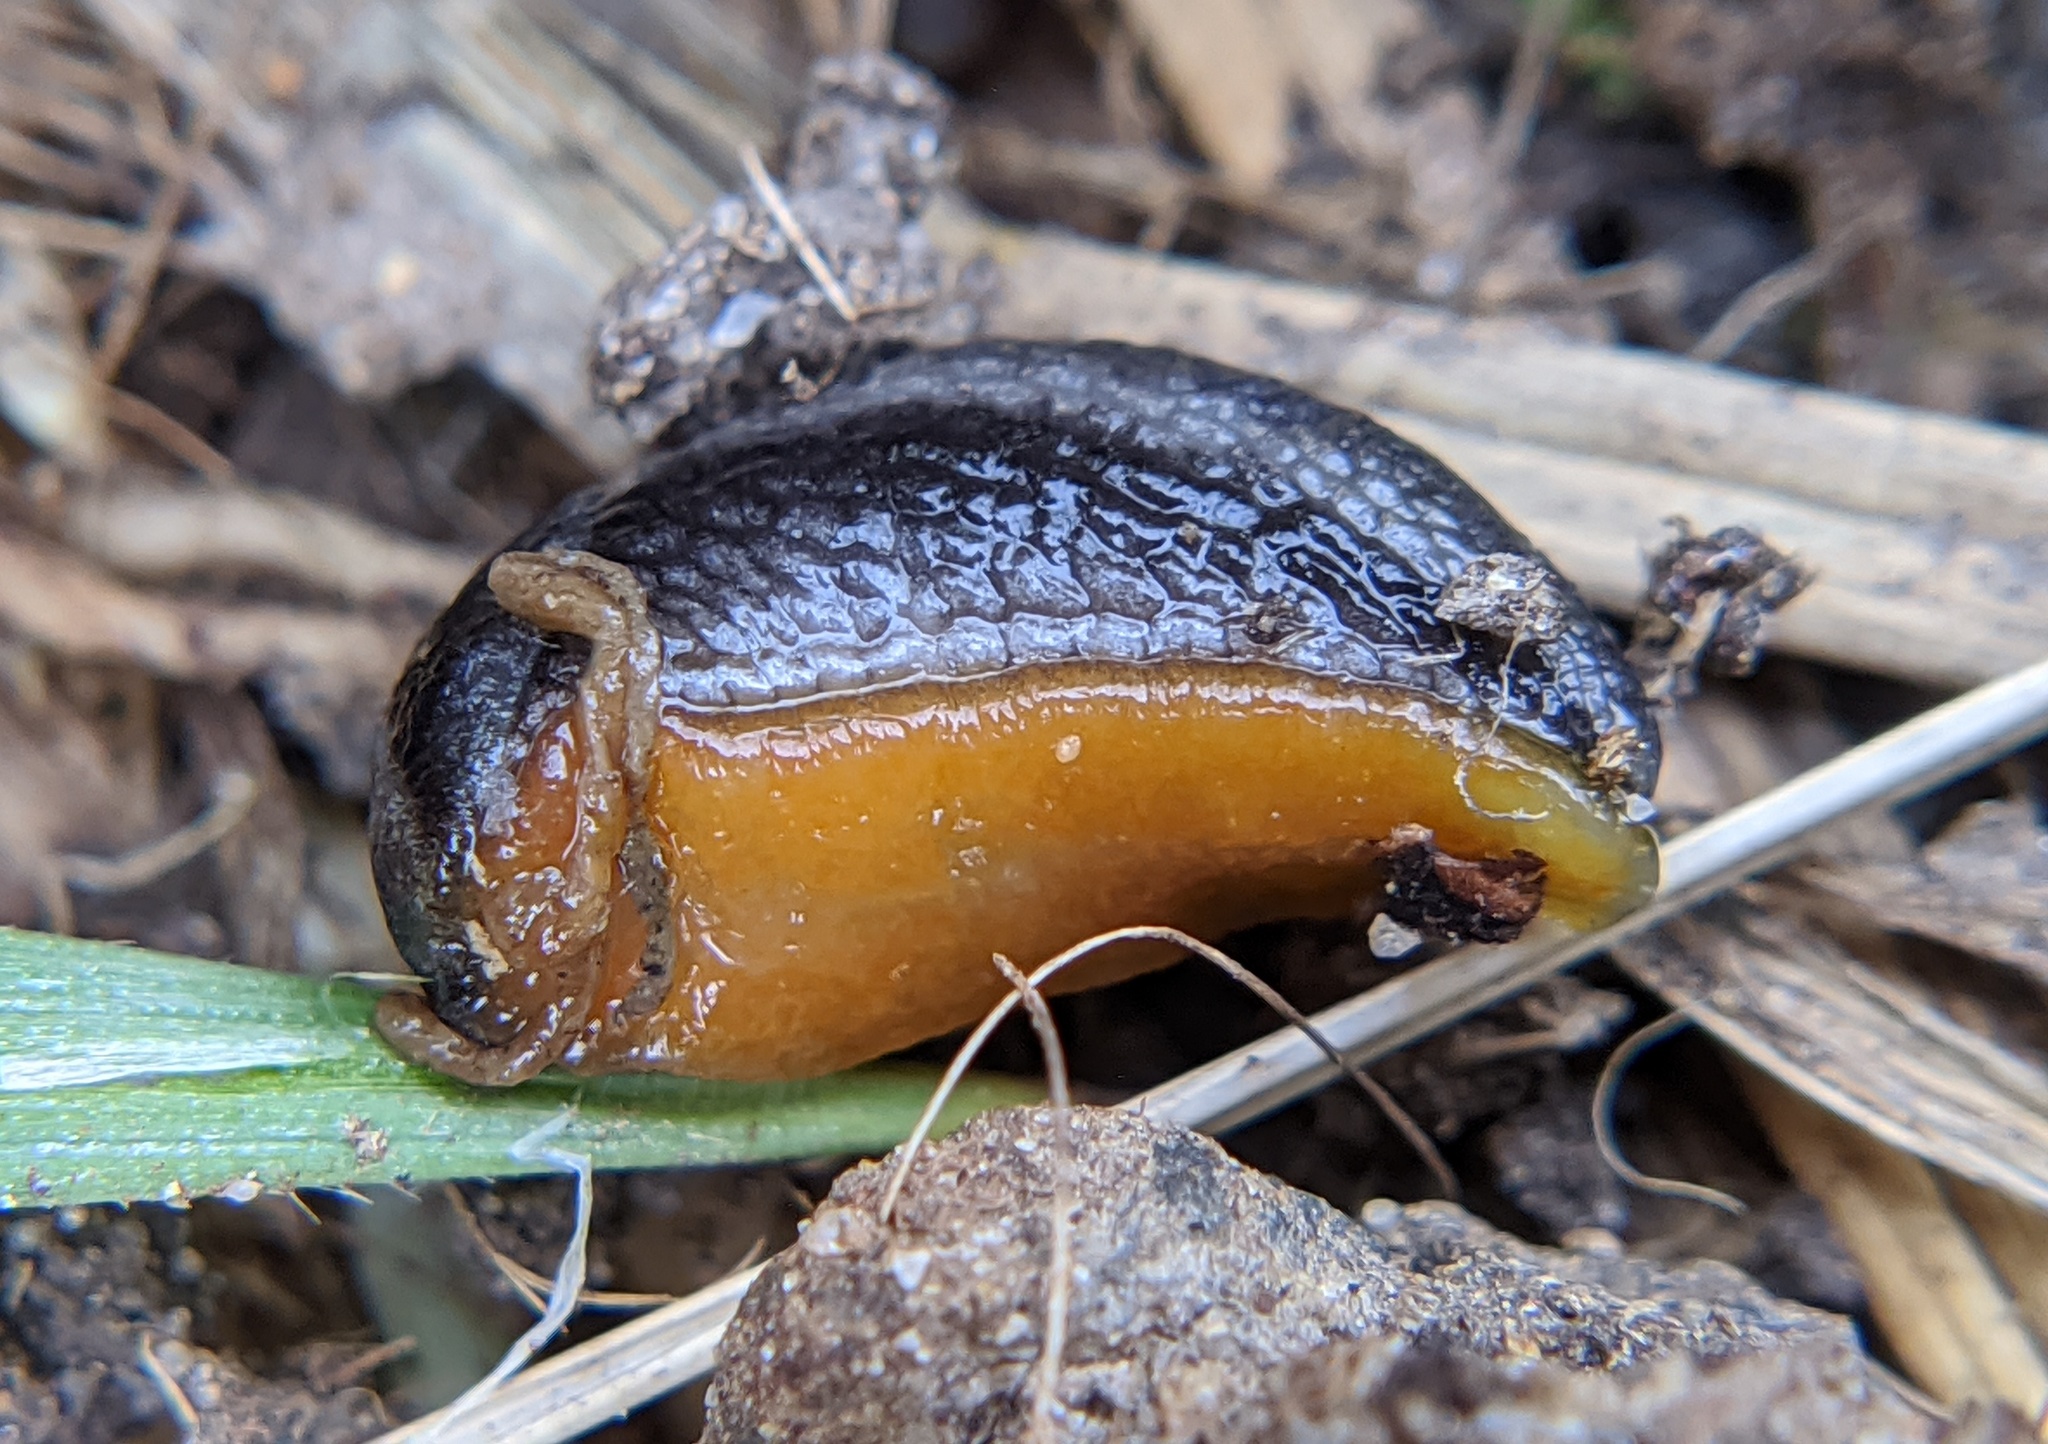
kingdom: Animalia
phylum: Mollusca
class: Gastropoda
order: Stylommatophora
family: Arionidae
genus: Arion
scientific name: Arion hortensis
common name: Garden arion
